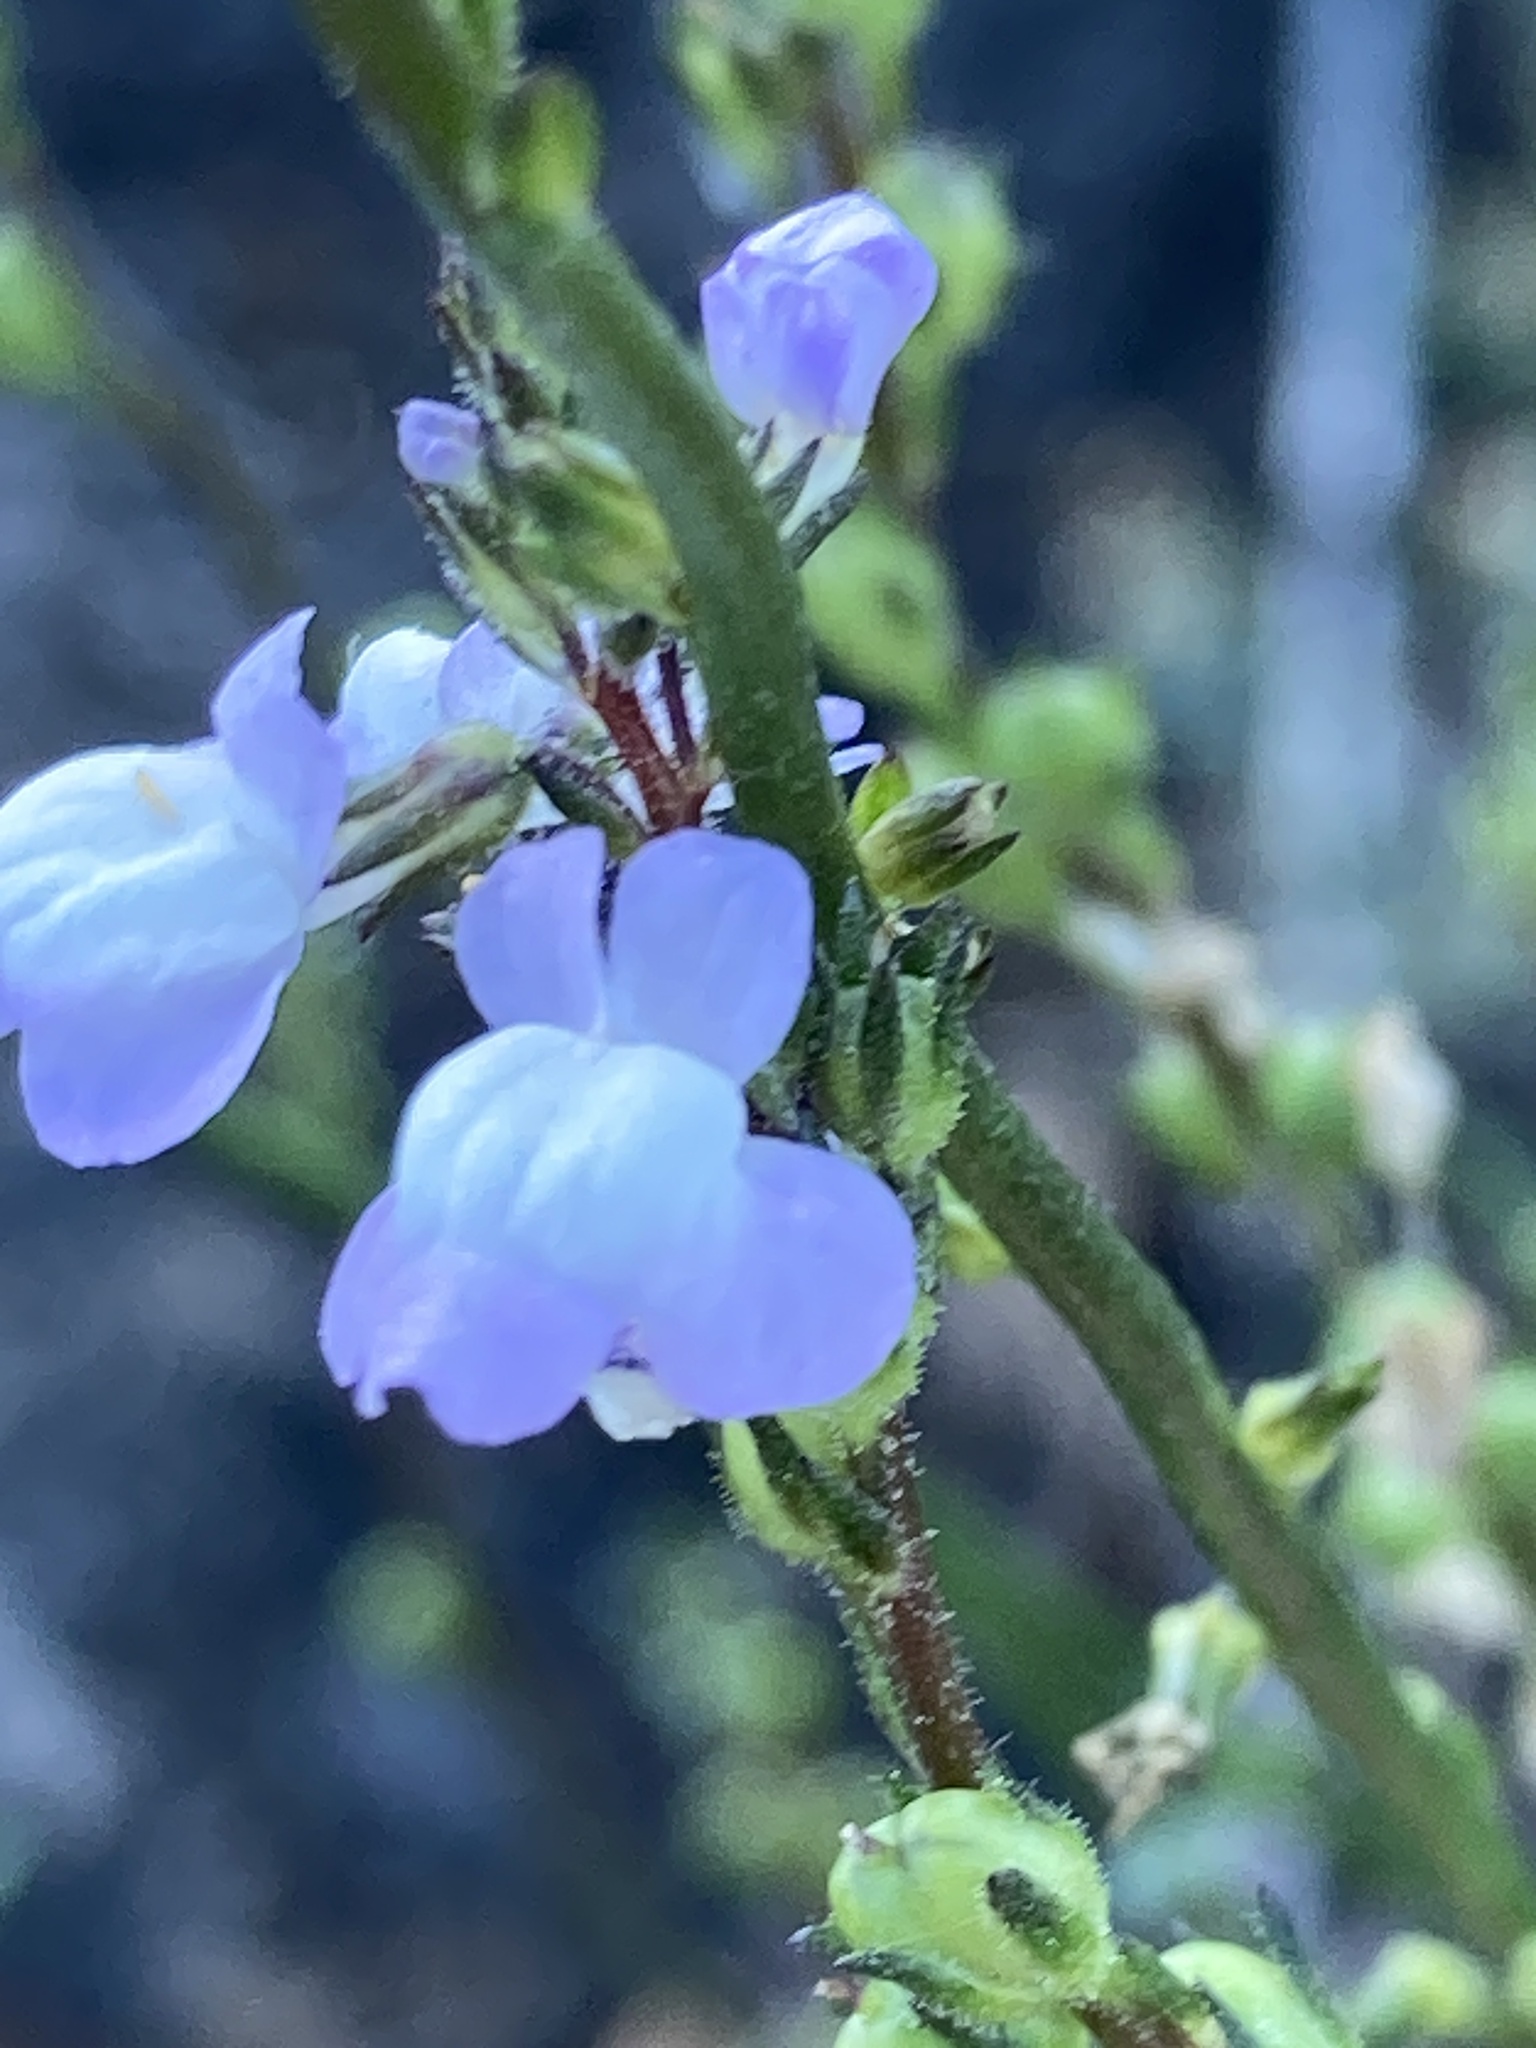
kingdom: Plantae
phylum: Tracheophyta
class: Magnoliopsida
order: Lamiales
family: Plantaginaceae
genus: Nuttallanthus
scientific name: Nuttallanthus canadensis
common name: Blue toadflax
